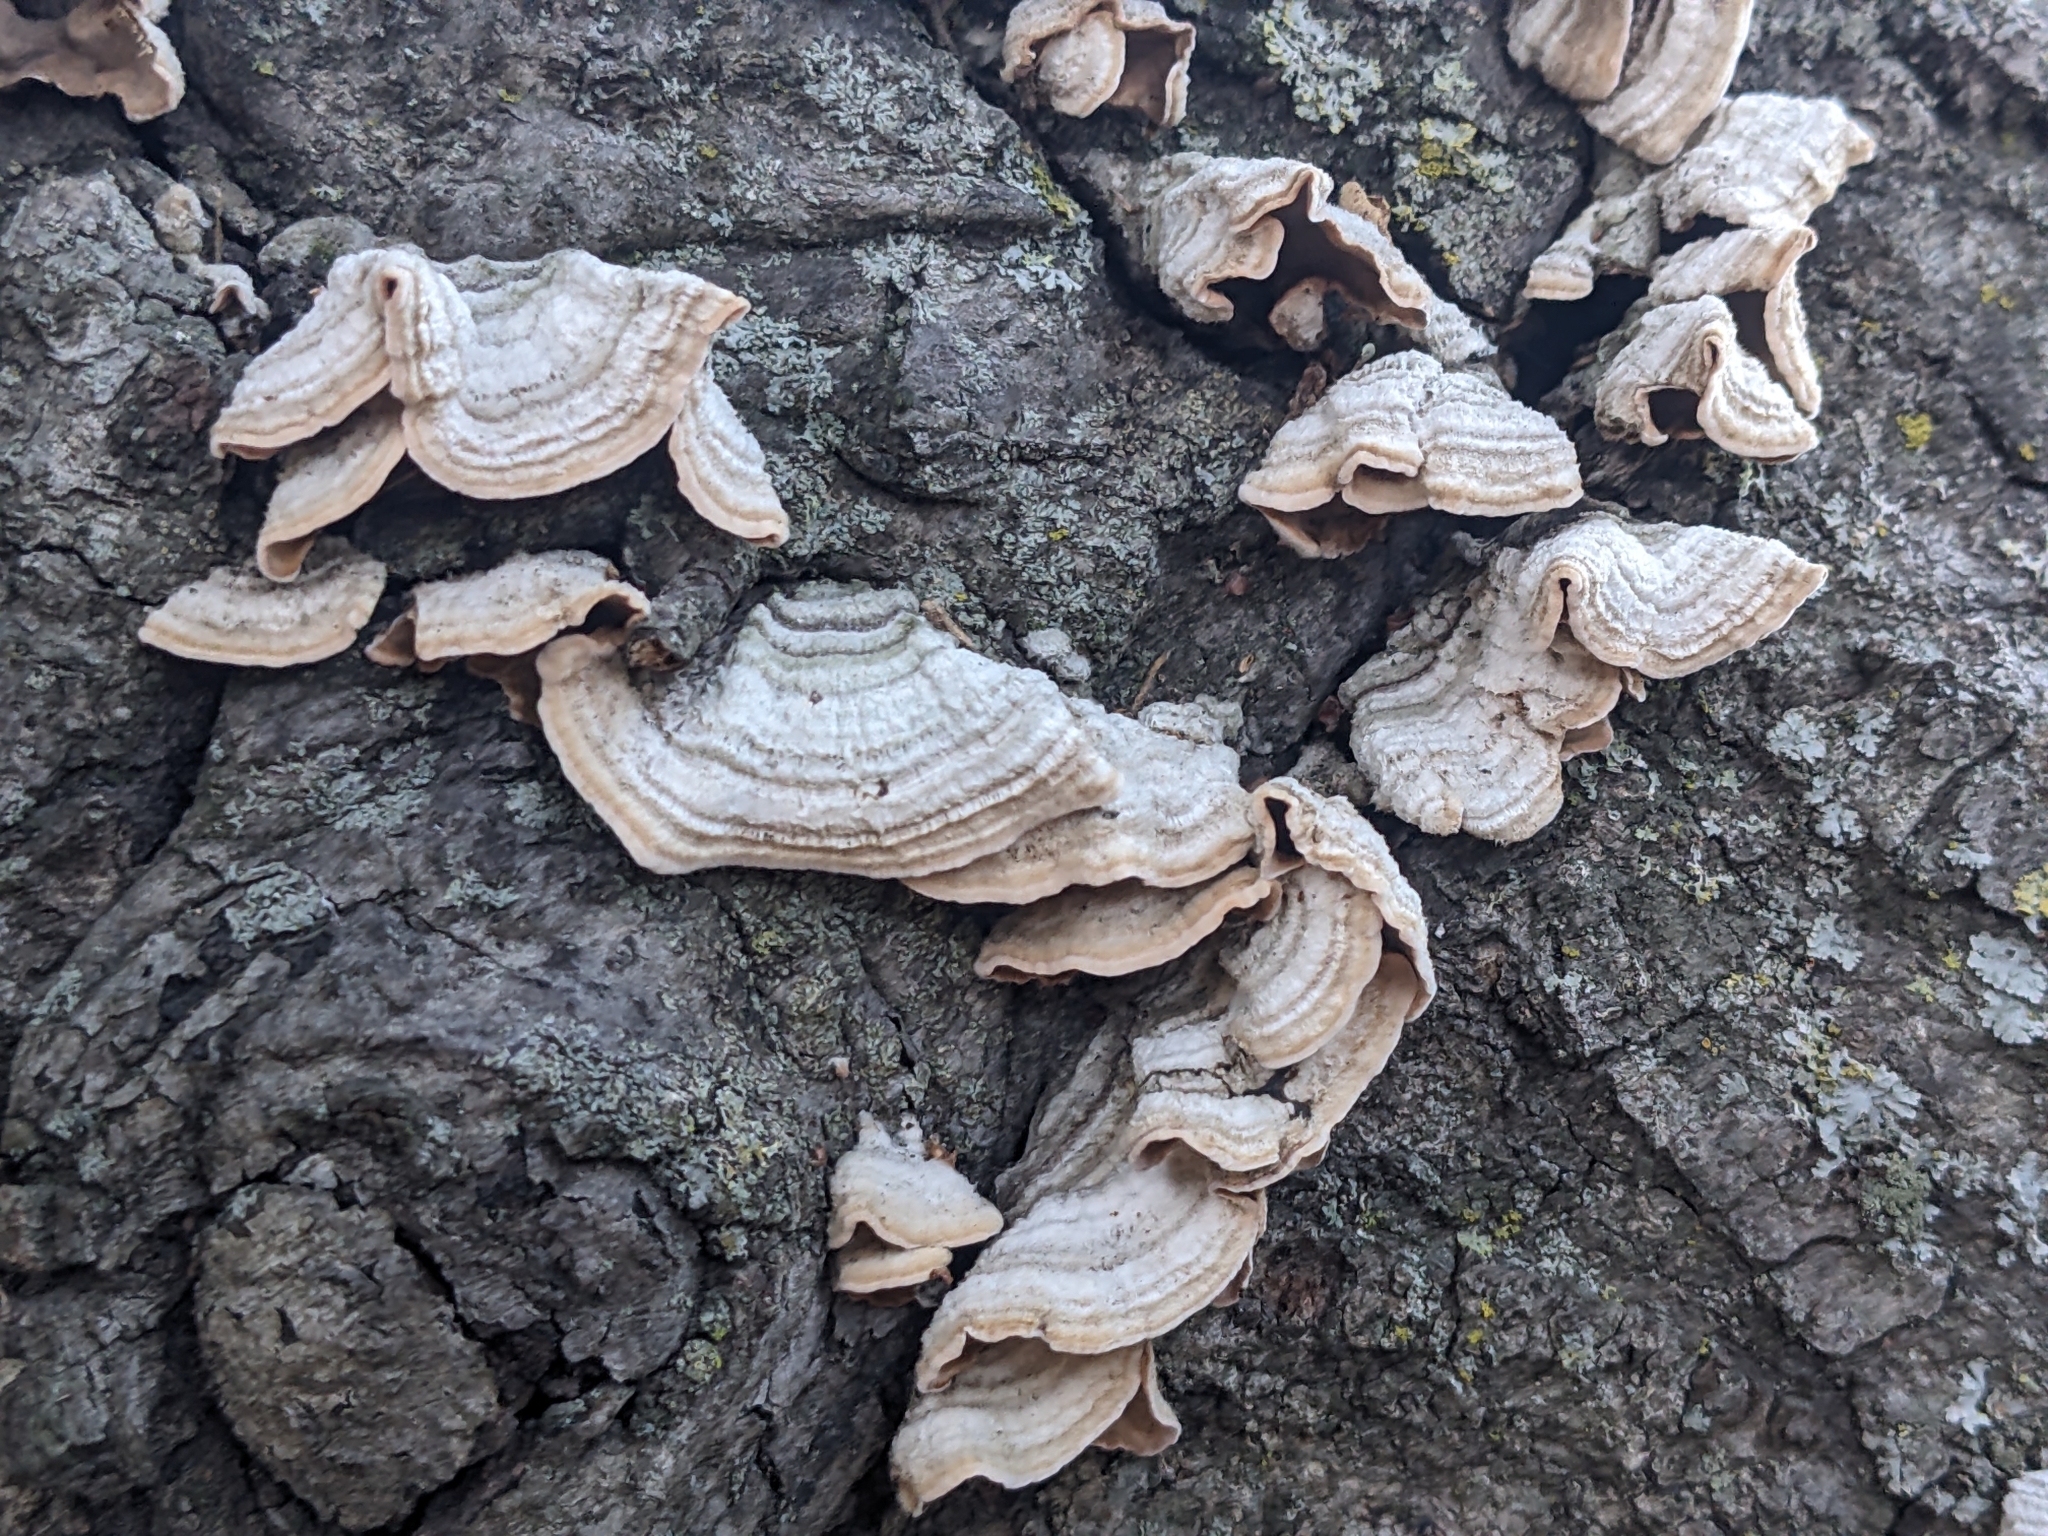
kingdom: Fungi
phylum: Basidiomycota
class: Agaricomycetes
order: Russulales
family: Stereaceae
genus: Stereum
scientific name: Stereum hirsutum
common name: Hairy curtain crust
